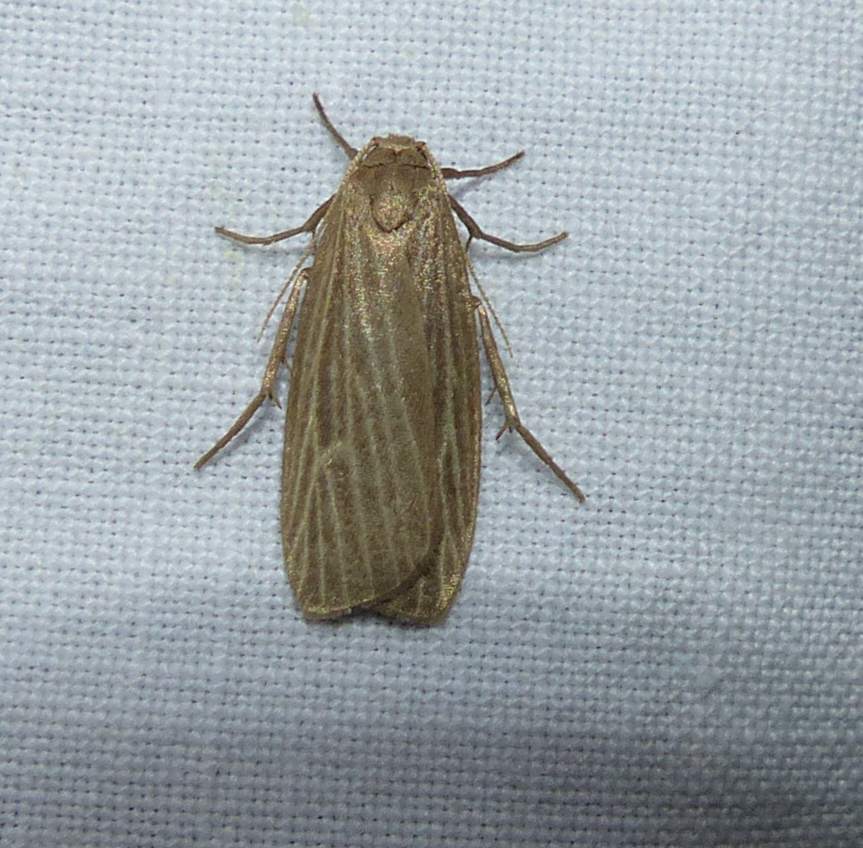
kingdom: Animalia
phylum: Arthropoda
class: Insecta
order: Lepidoptera
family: Erebidae
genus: Crambidia
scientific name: Crambidia pallida
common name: Pale lichen moth
